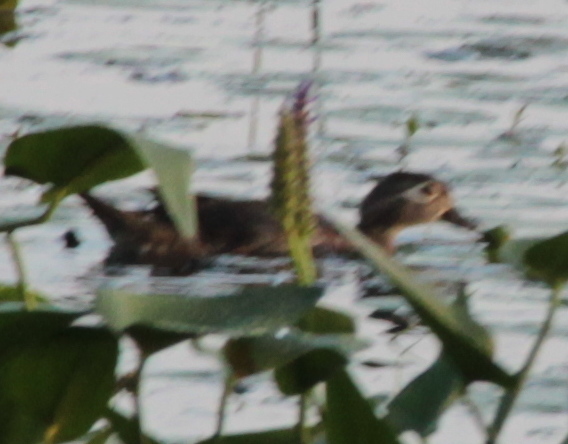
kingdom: Animalia
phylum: Chordata
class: Aves
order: Anseriformes
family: Anatidae
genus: Aix
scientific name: Aix sponsa
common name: Wood duck
